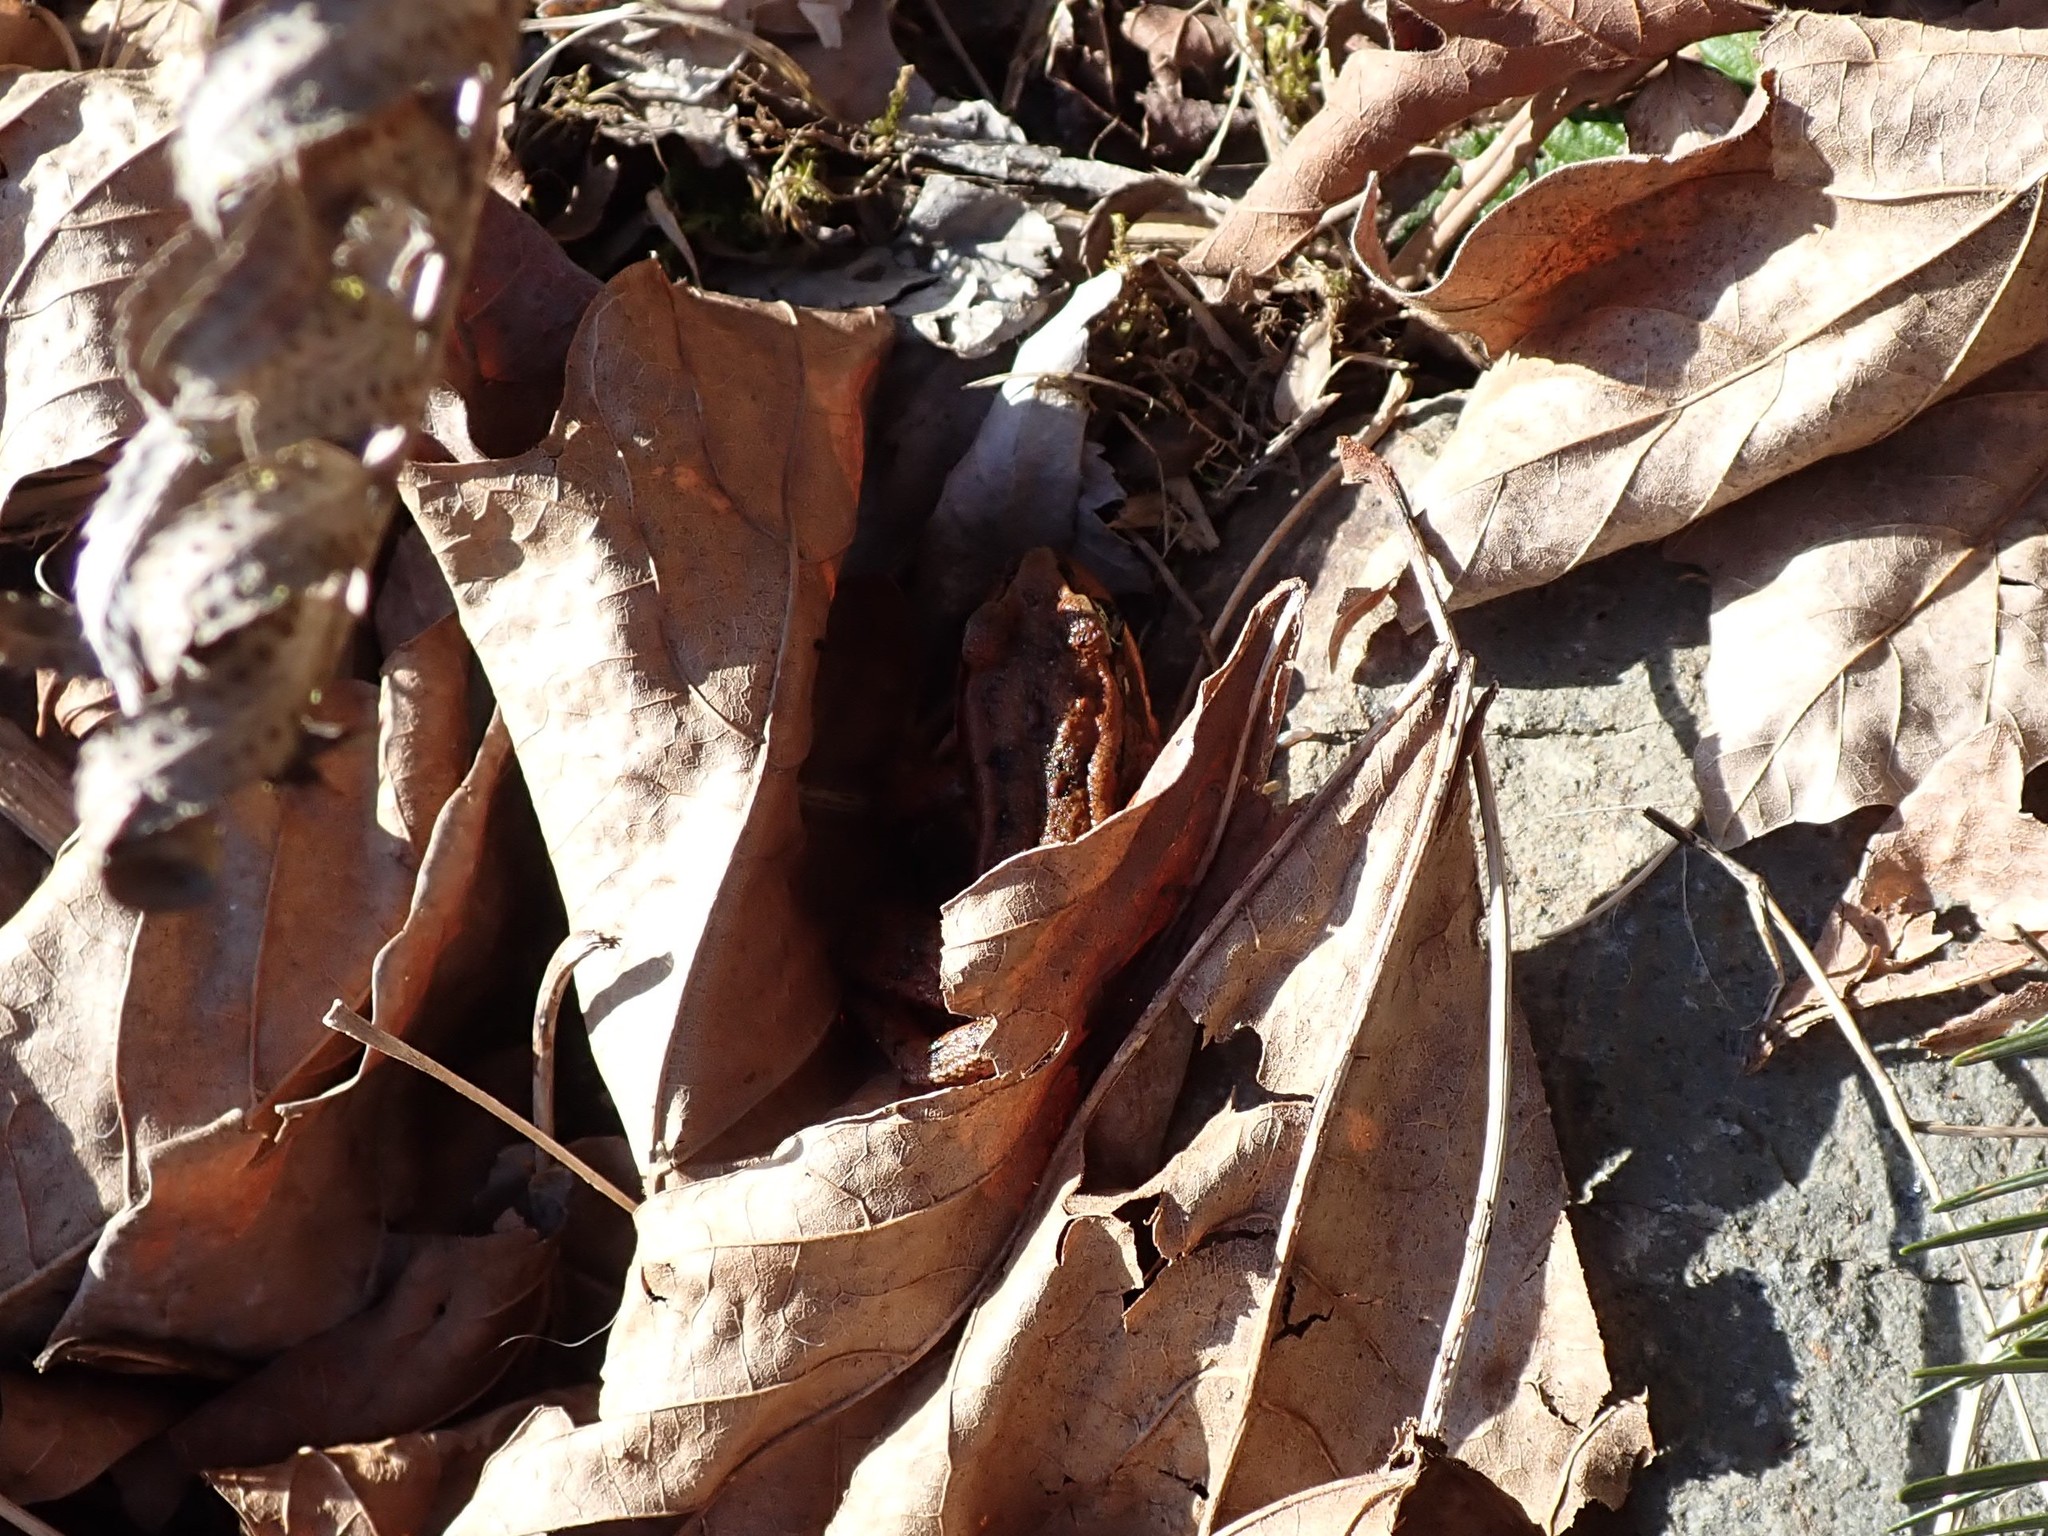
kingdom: Animalia
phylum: Chordata
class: Amphibia
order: Anura
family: Ranidae
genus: Rana
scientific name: Rana aurora
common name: Red-legged frog
